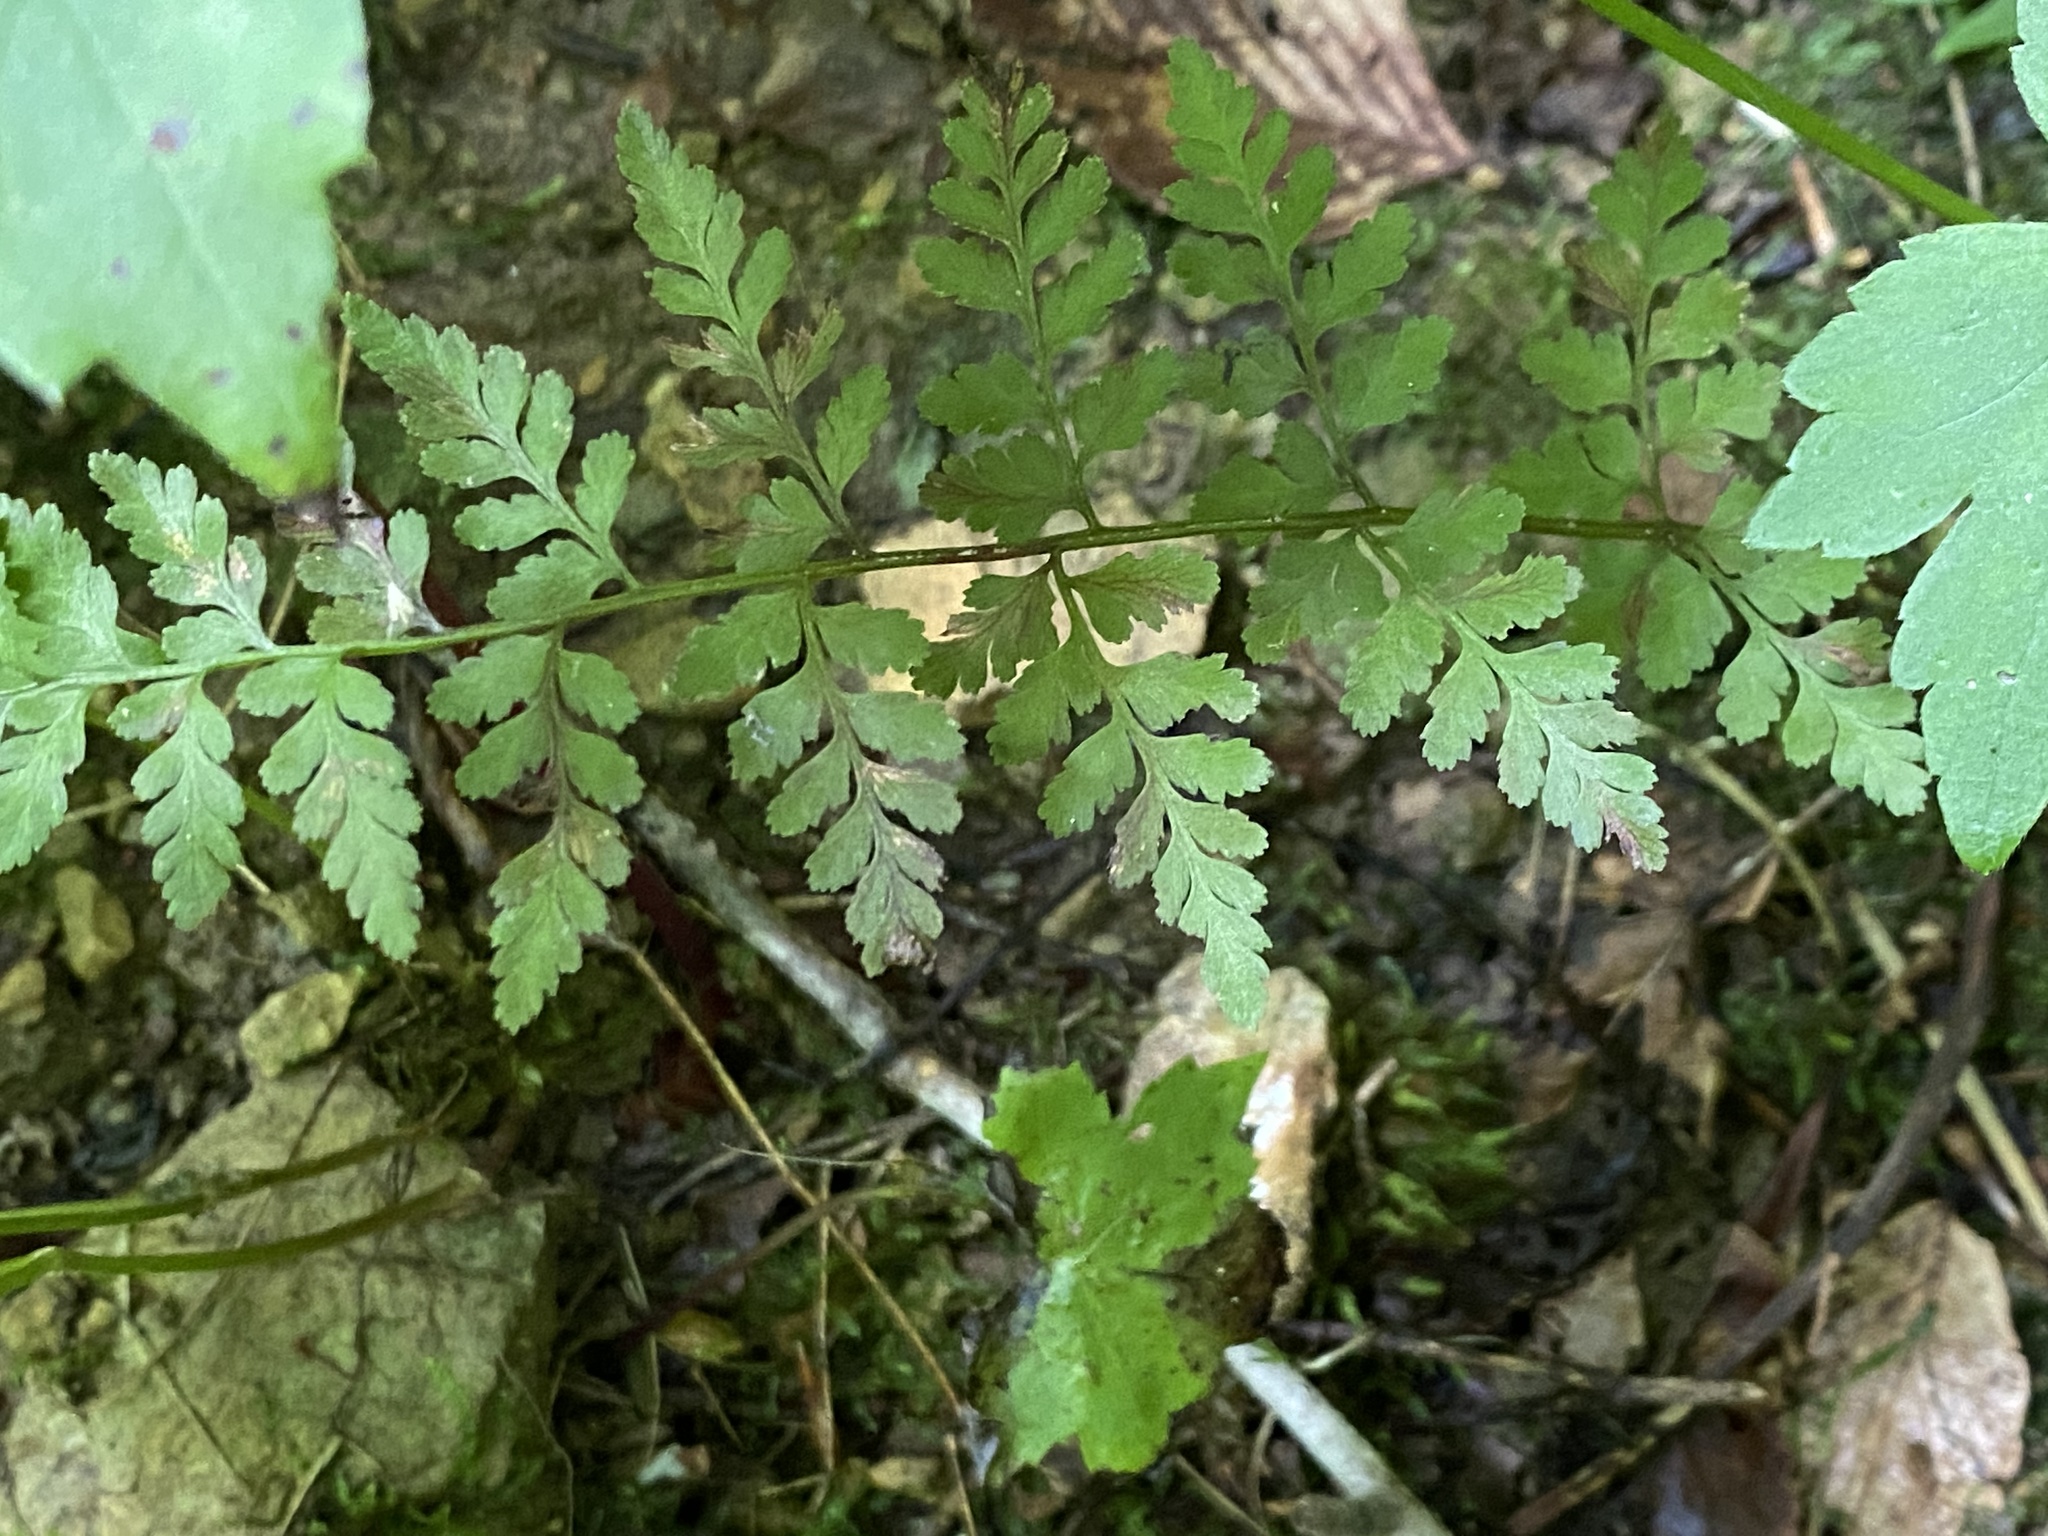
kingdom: Plantae
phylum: Tracheophyta
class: Polypodiopsida
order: Polypodiales
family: Cystopteridaceae
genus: Cystopteris
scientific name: Cystopteris protrusa
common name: Lowland brittle fern
